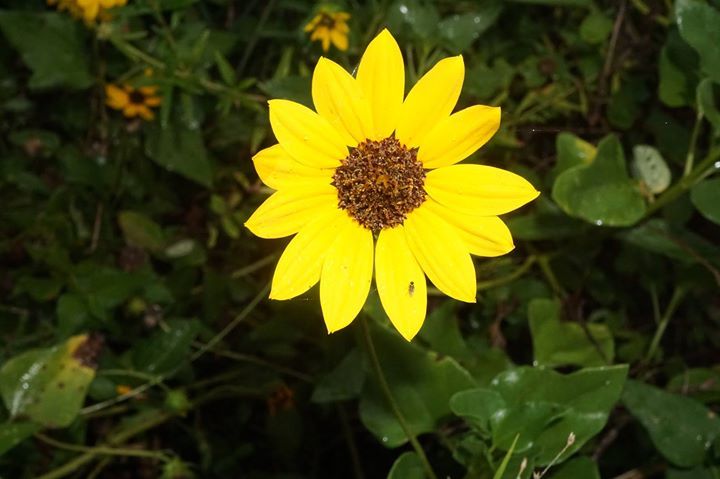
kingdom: Plantae
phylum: Tracheophyta
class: Magnoliopsida
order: Asterales
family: Asteraceae
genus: Helianthus
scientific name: Helianthus debilis
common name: Weak sunflower
